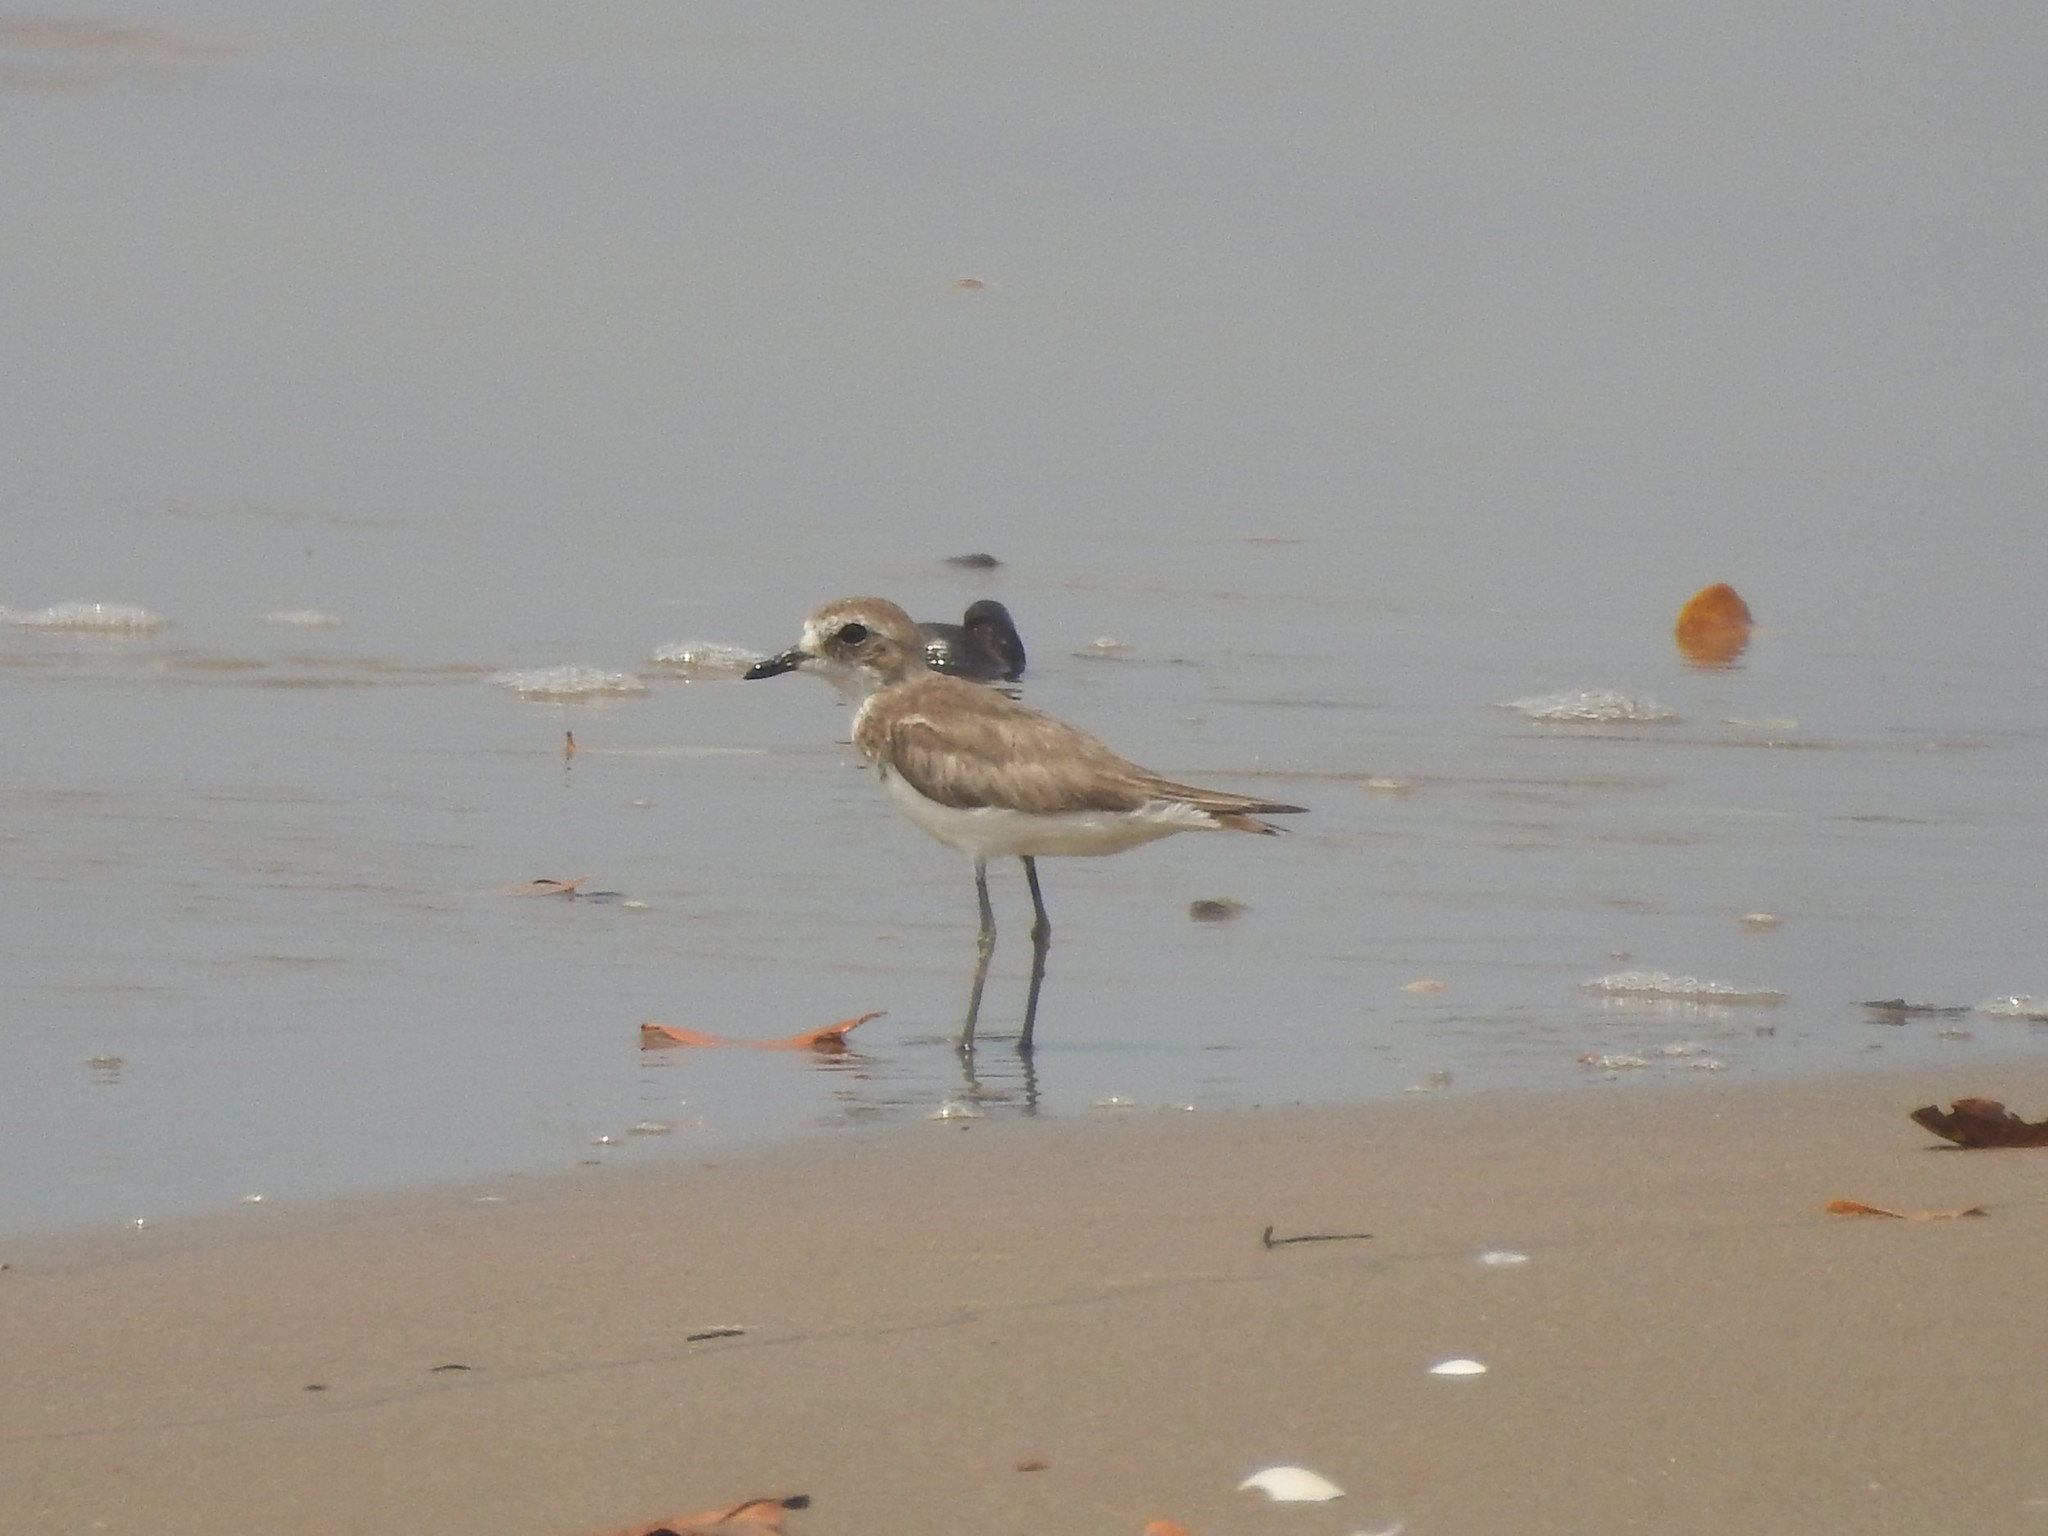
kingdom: Animalia
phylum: Chordata
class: Aves
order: Charadriiformes
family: Charadriidae
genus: Anarhynchus
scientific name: Anarhynchus
